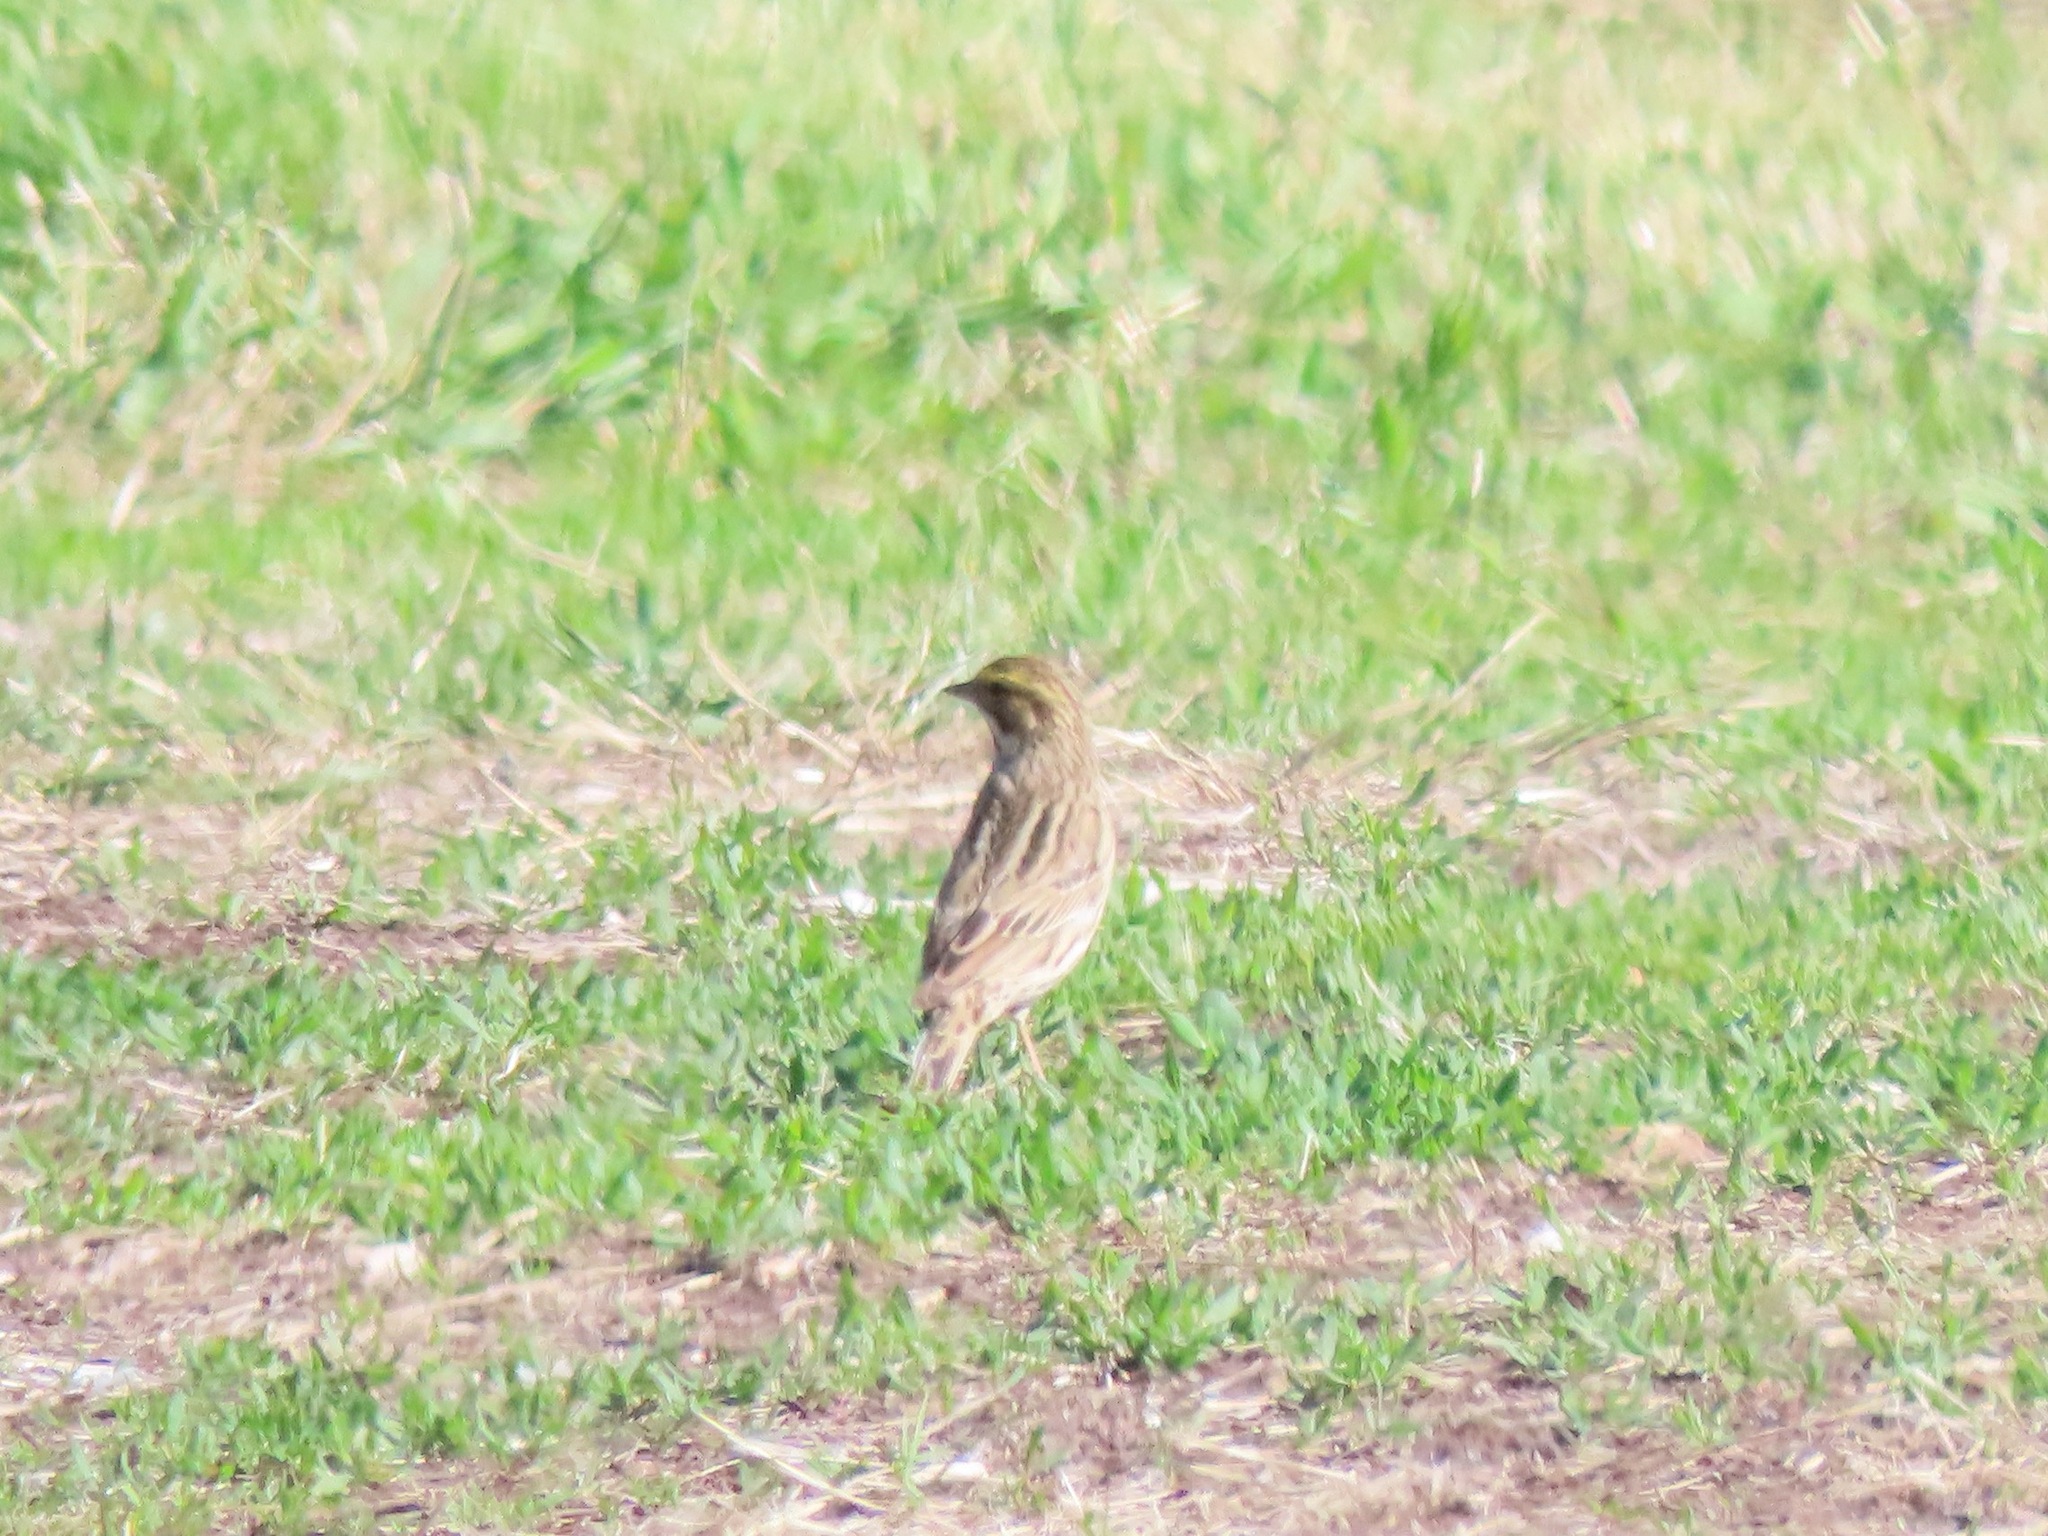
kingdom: Animalia
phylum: Chordata
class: Aves
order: Passeriformes
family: Passerellidae
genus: Passerculus
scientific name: Passerculus sandwichensis
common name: Savannah sparrow
